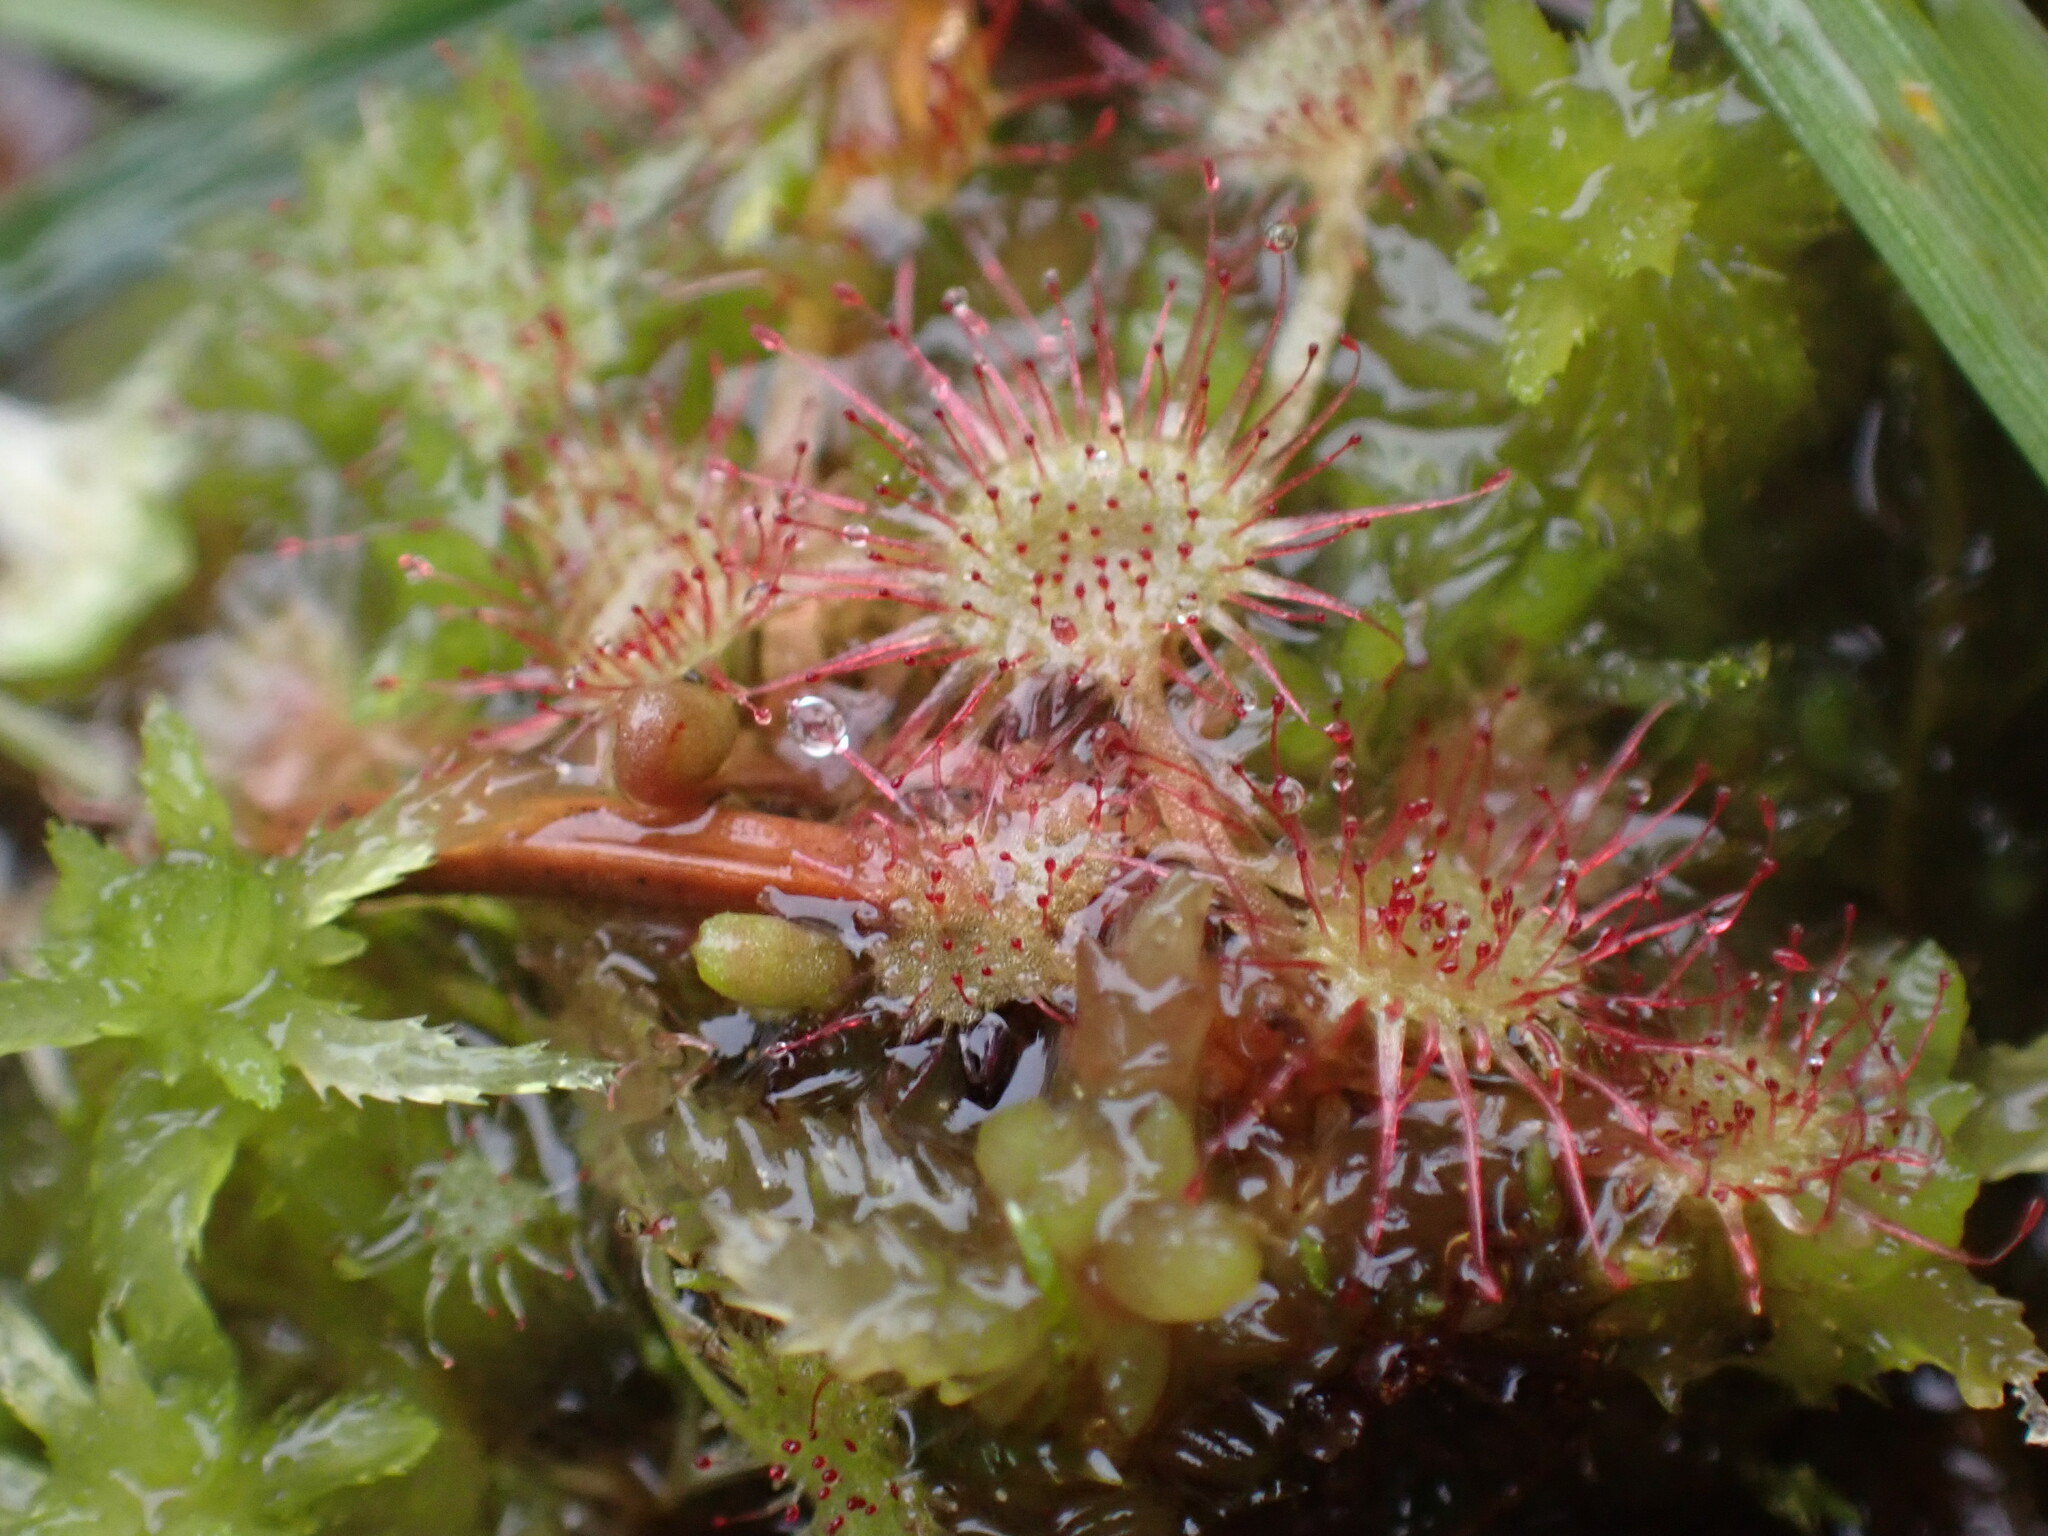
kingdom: Plantae
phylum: Tracheophyta
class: Magnoliopsida
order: Caryophyllales
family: Droseraceae
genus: Drosera
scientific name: Drosera rotundifolia
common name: Round-leaved sundew
